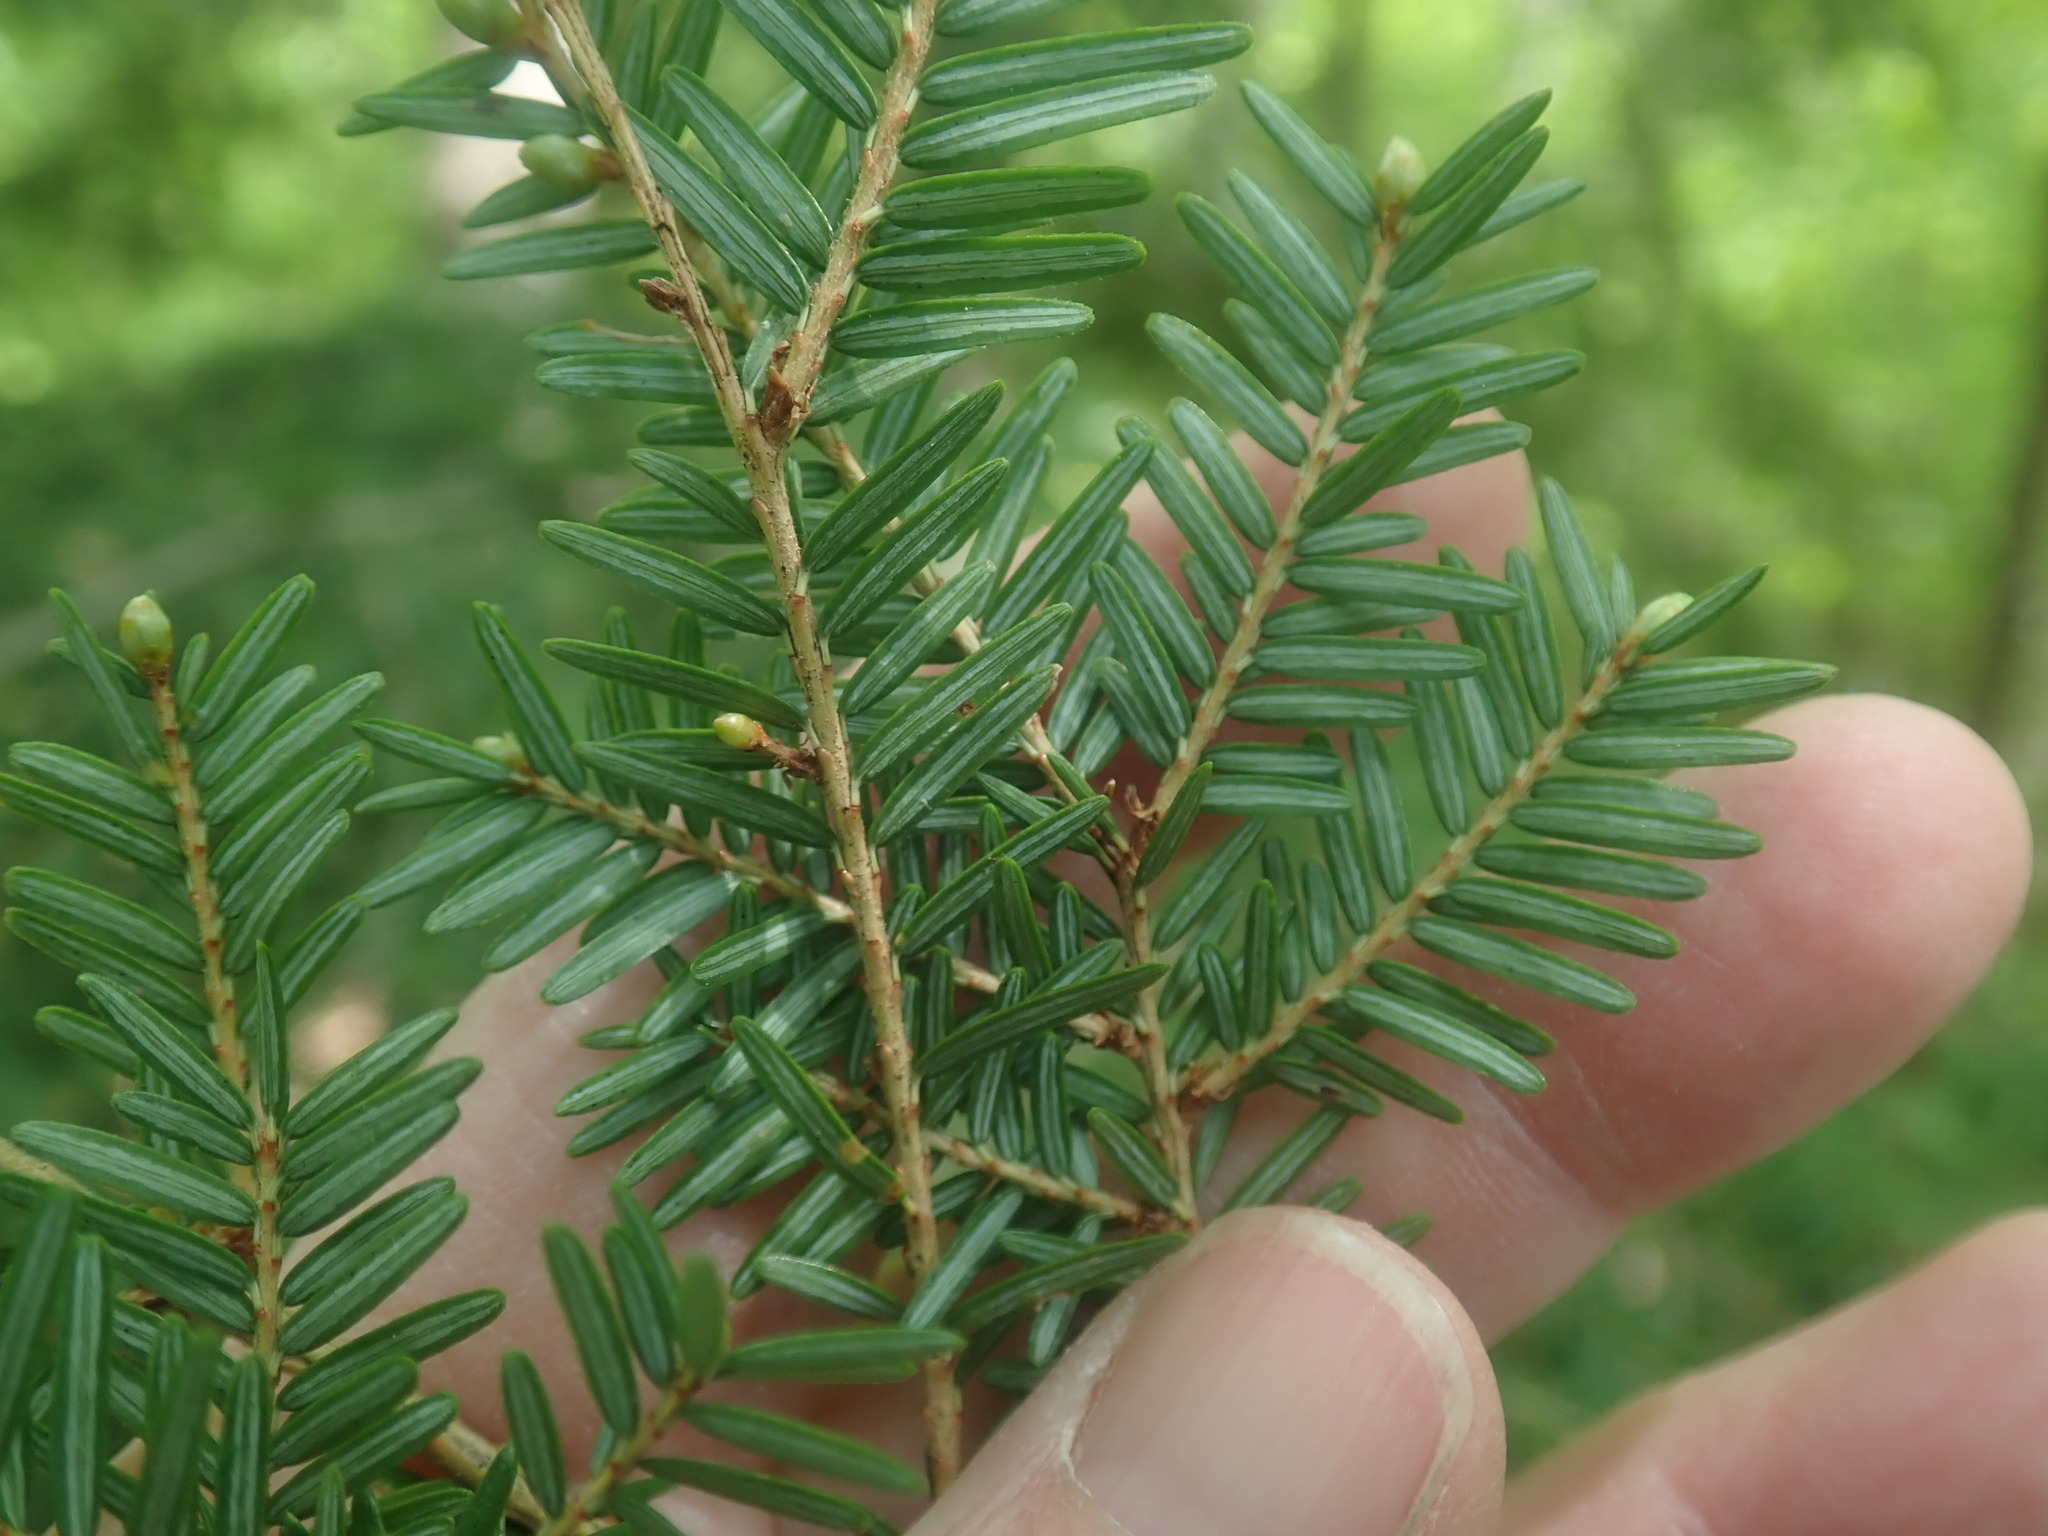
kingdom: Plantae
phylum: Tracheophyta
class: Pinopsida
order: Pinales
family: Pinaceae
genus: Tsuga
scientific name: Tsuga canadensis
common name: Eastern hemlock
